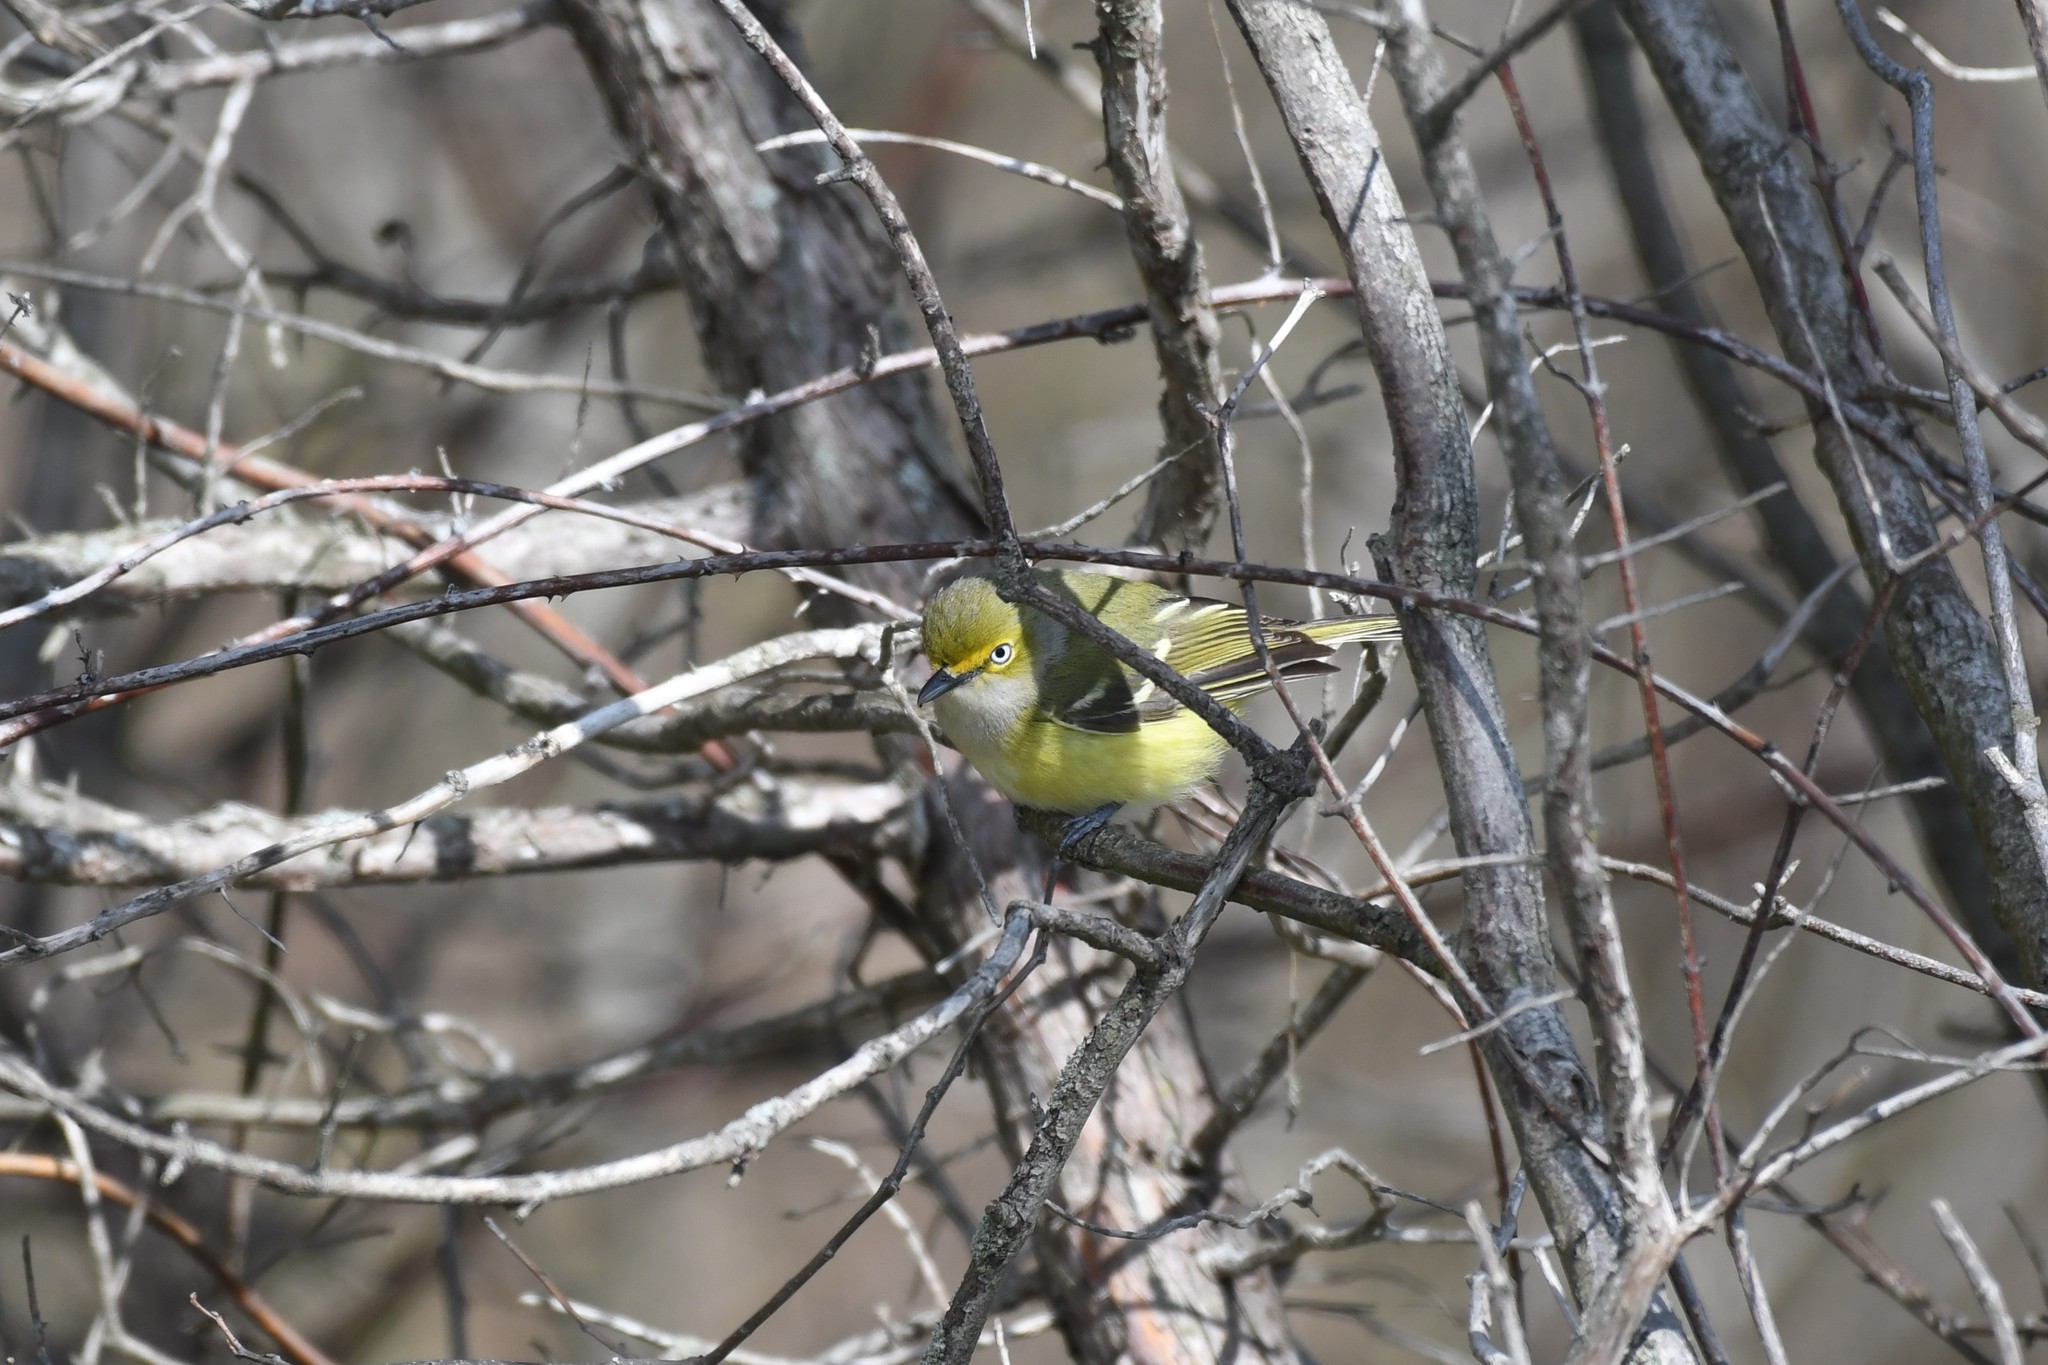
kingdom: Animalia
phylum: Chordata
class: Aves
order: Passeriformes
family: Vireonidae
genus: Vireo
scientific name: Vireo griseus
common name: White-eyed vireo
